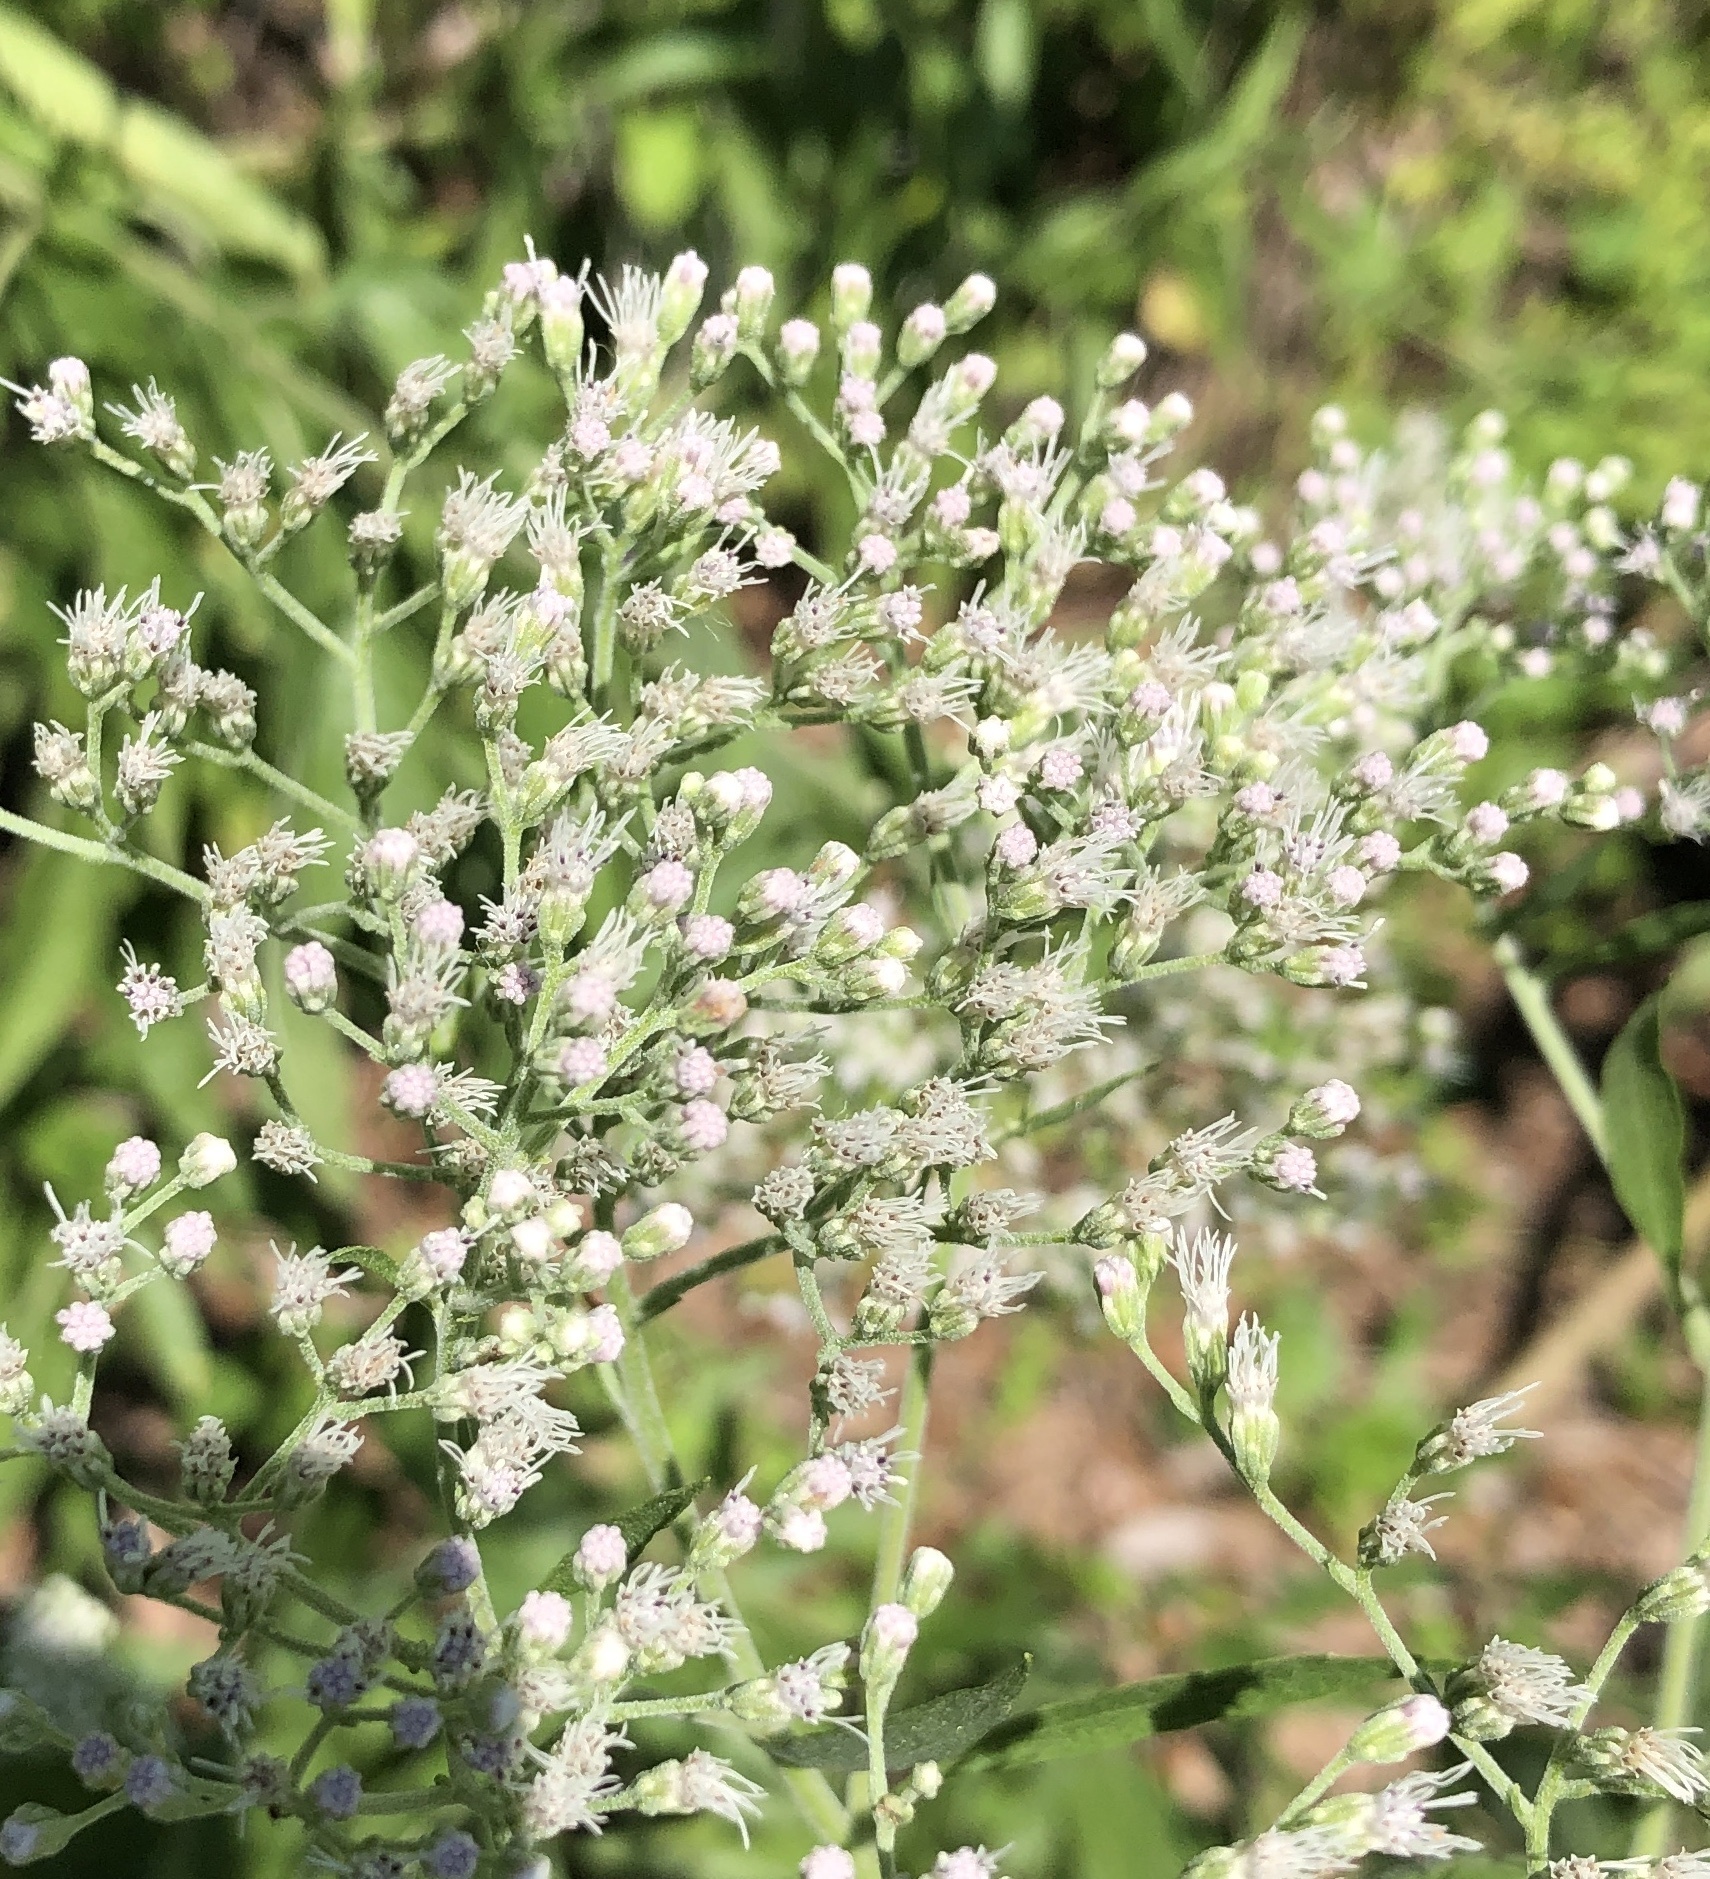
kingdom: Plantae
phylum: Tracheophyta
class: Magnoliopsida
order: Asterales
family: Asteraceae
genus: Eupatorium
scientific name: Eupatorium serotinum
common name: Late boneset
